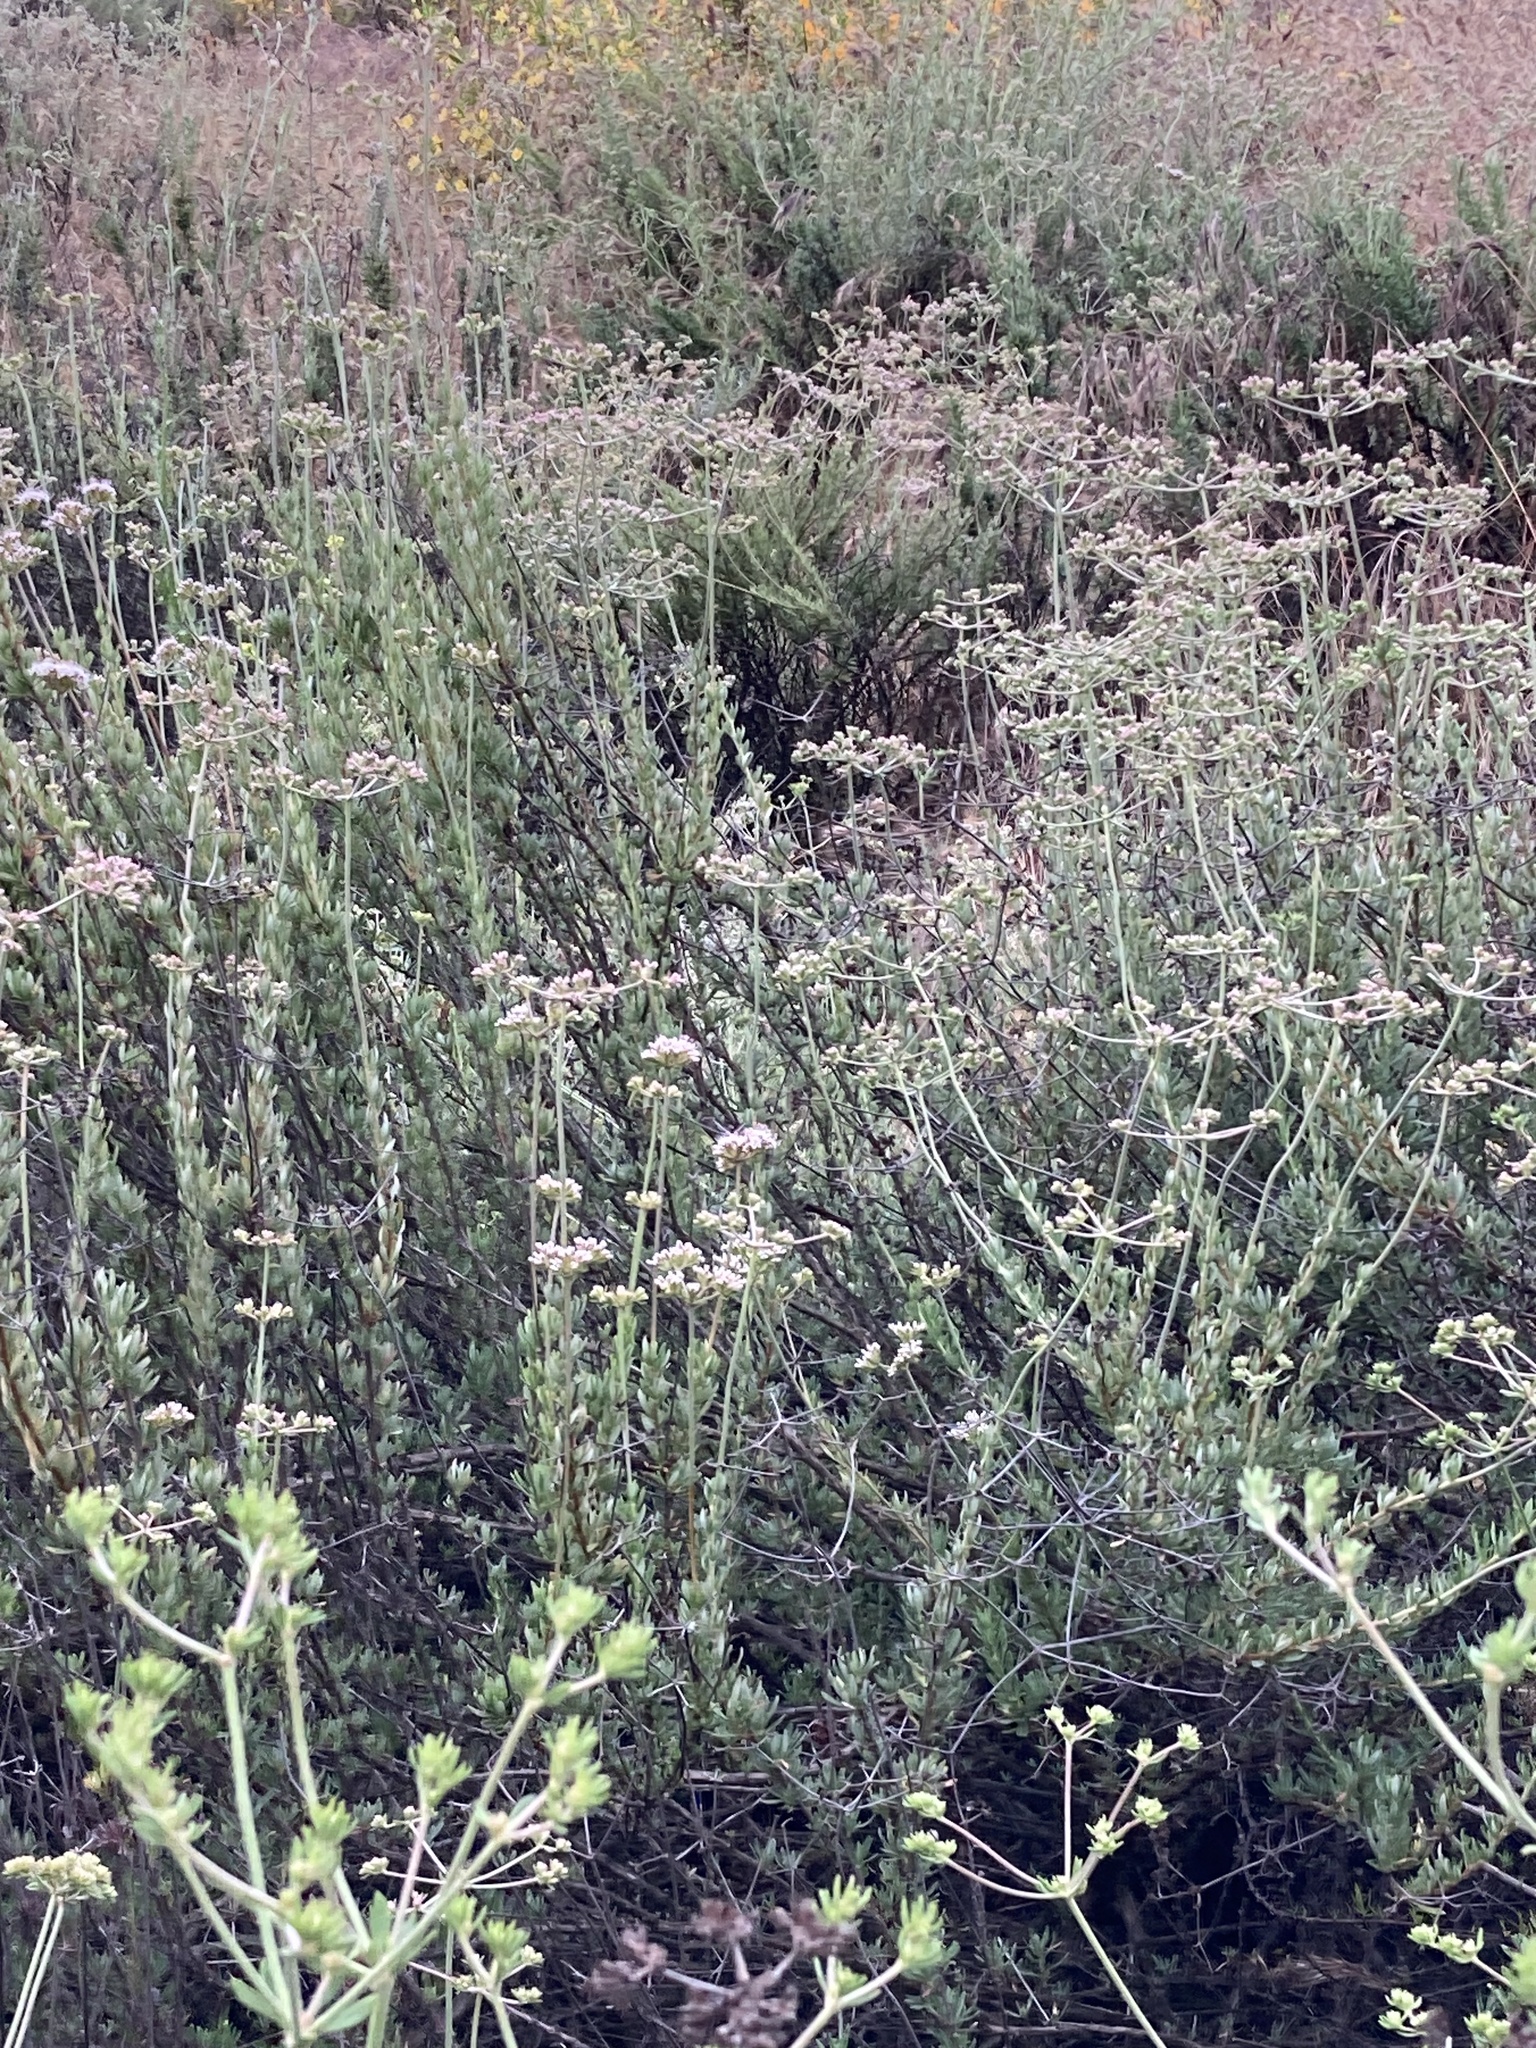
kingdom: Plantae
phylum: Tracheophyta
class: Magnoliopsida
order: Caryophyllales
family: Polygonaceae
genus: Eriogonum
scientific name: Eriogonum fasciculatum
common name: California wild buckwheat
